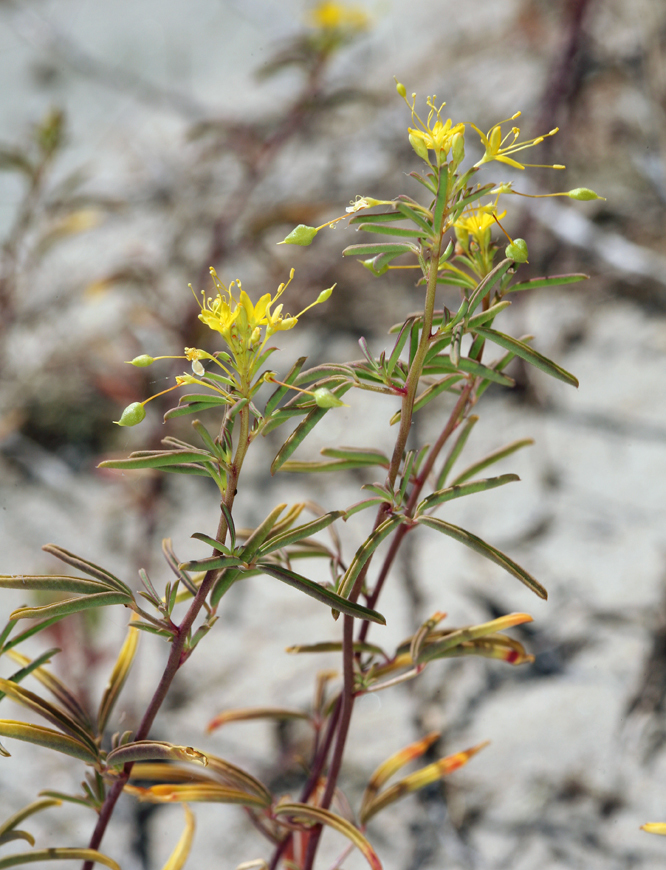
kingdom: Plantae
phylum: Tracheophyta
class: Magnoliopsida
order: Brassicales
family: Cleomaceae
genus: Cleomella
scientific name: Cleomella plocasperma
